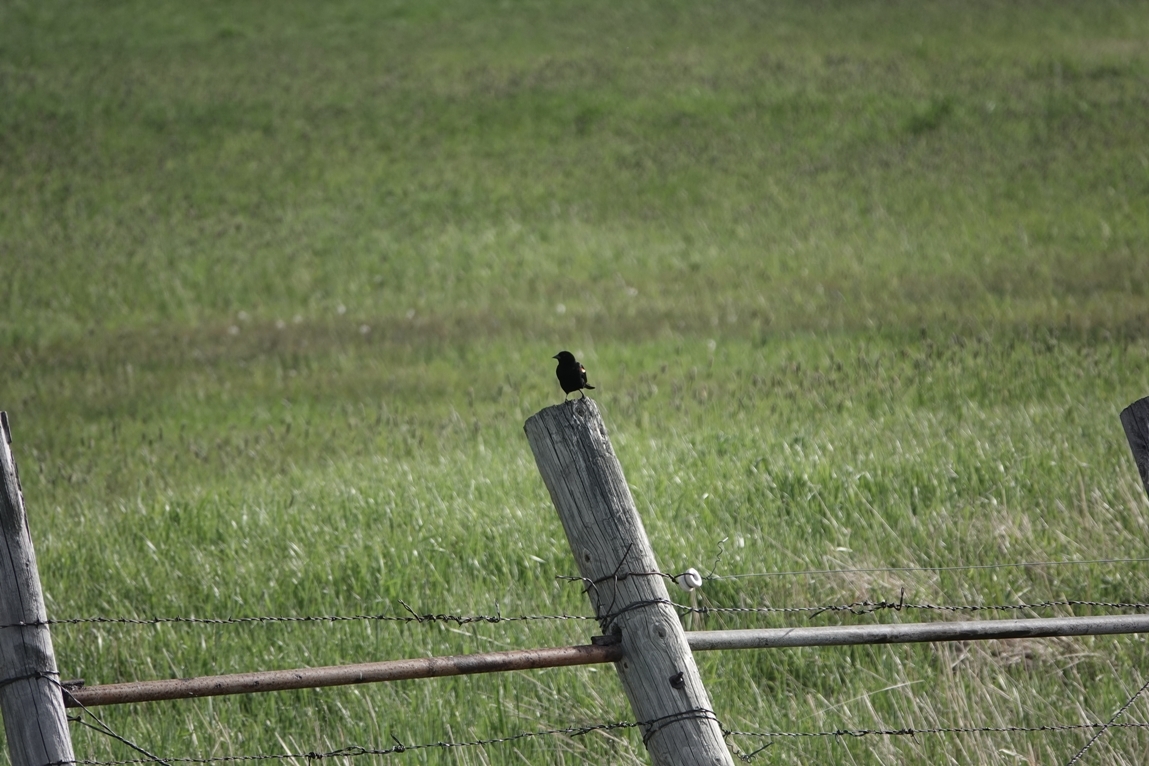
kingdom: Animalia
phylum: Chordata
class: Aves
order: Passeriformes
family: Icteridae
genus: Agelaius
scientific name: Agelaius phoeniceus
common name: Red-winged blackbird
